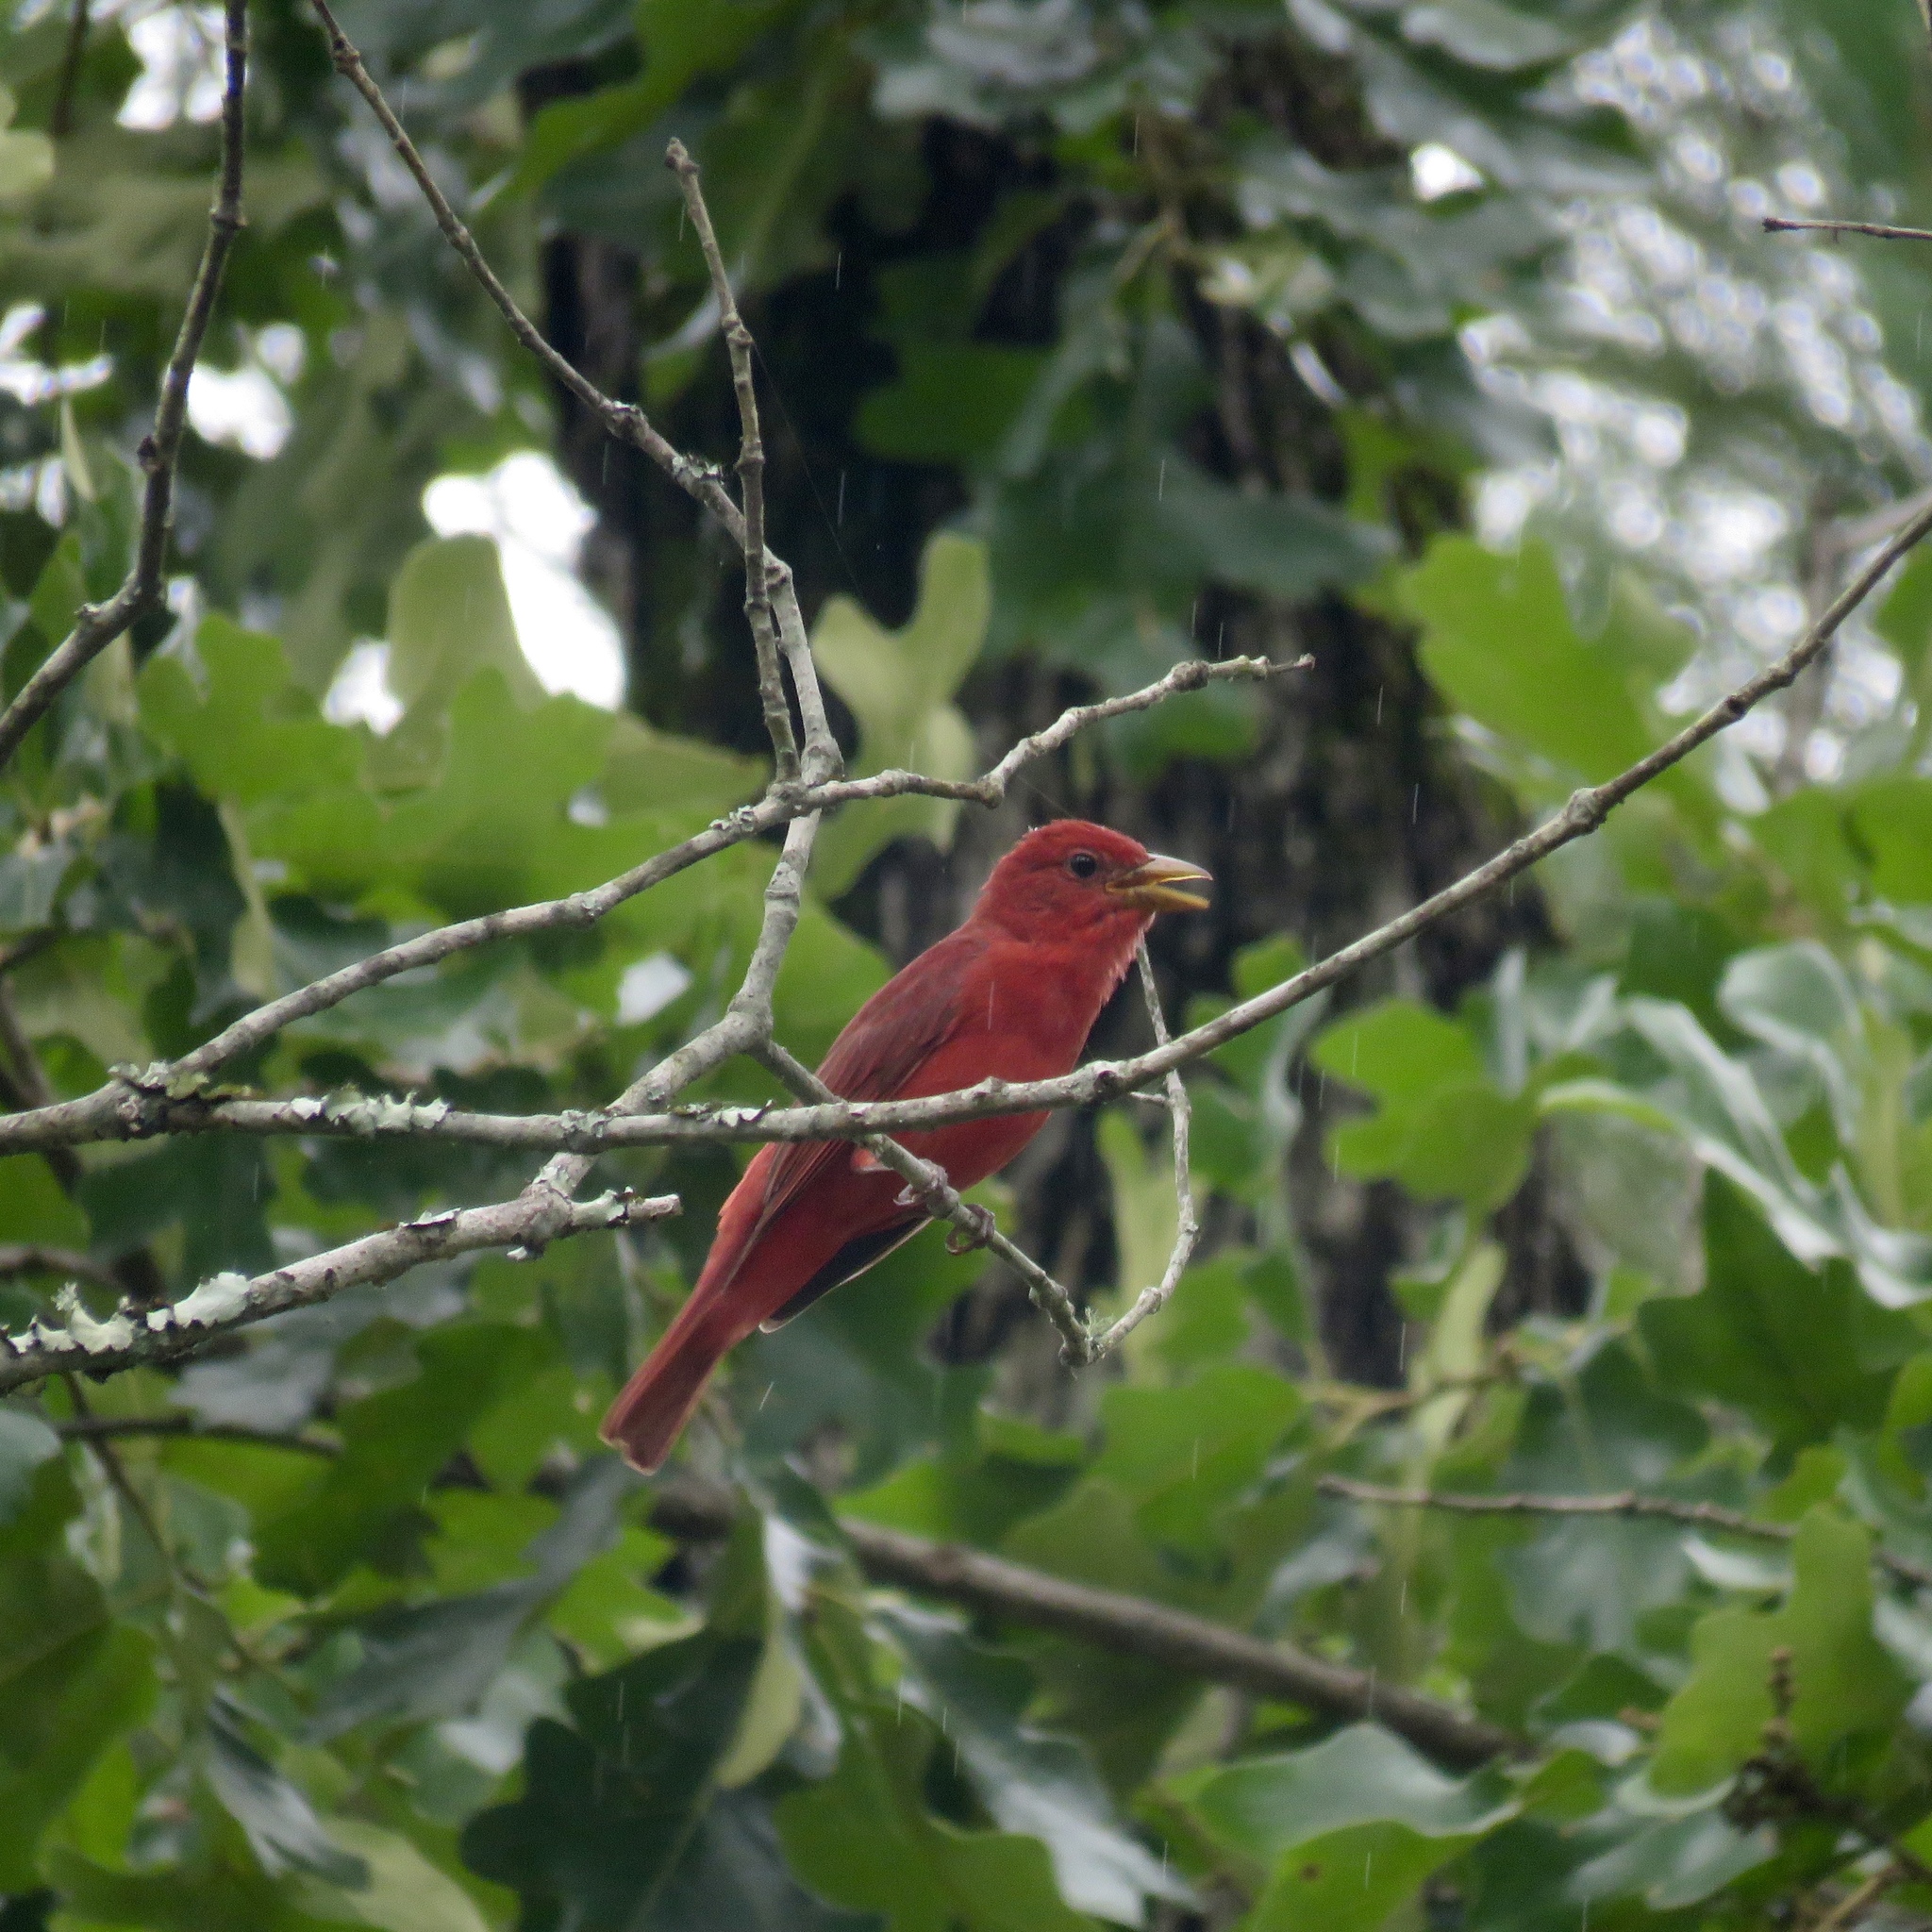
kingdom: Animalia
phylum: Chordata
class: Aves
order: Passeriformes
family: Cardinalidae
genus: Piranga
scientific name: Piranga rubra
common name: Summer tanager
